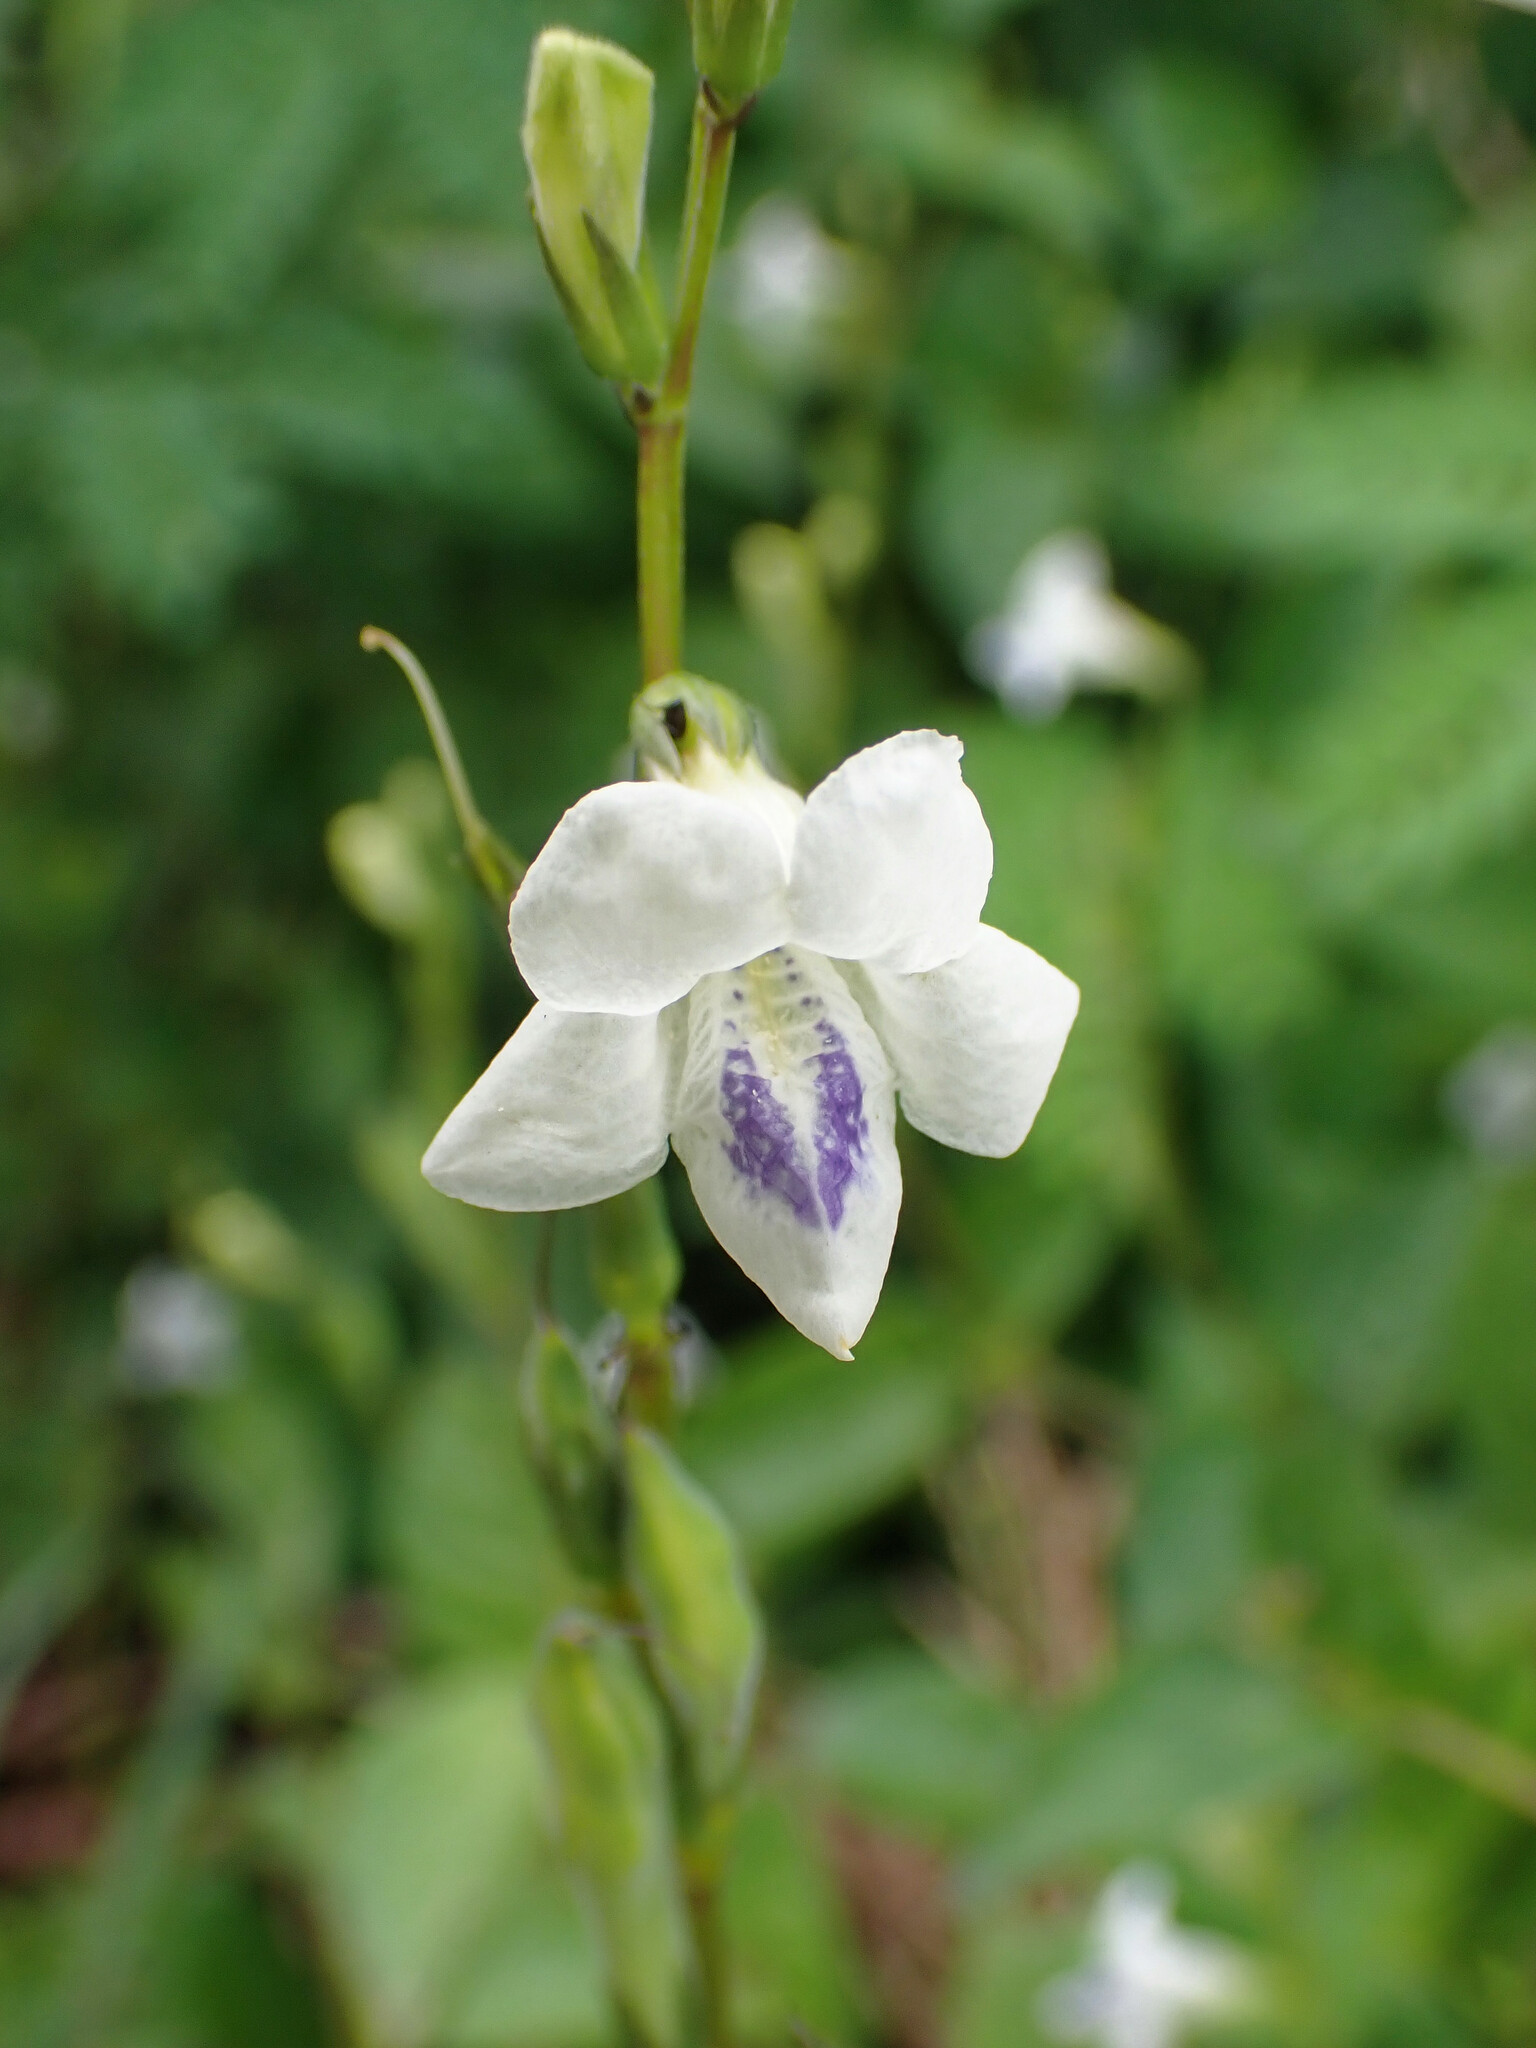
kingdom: Plantae
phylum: Tracheophyta
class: Magnoliopsida
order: Lamiales
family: Acanthaceae
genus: Asystasia
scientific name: Asystasia intrusa
